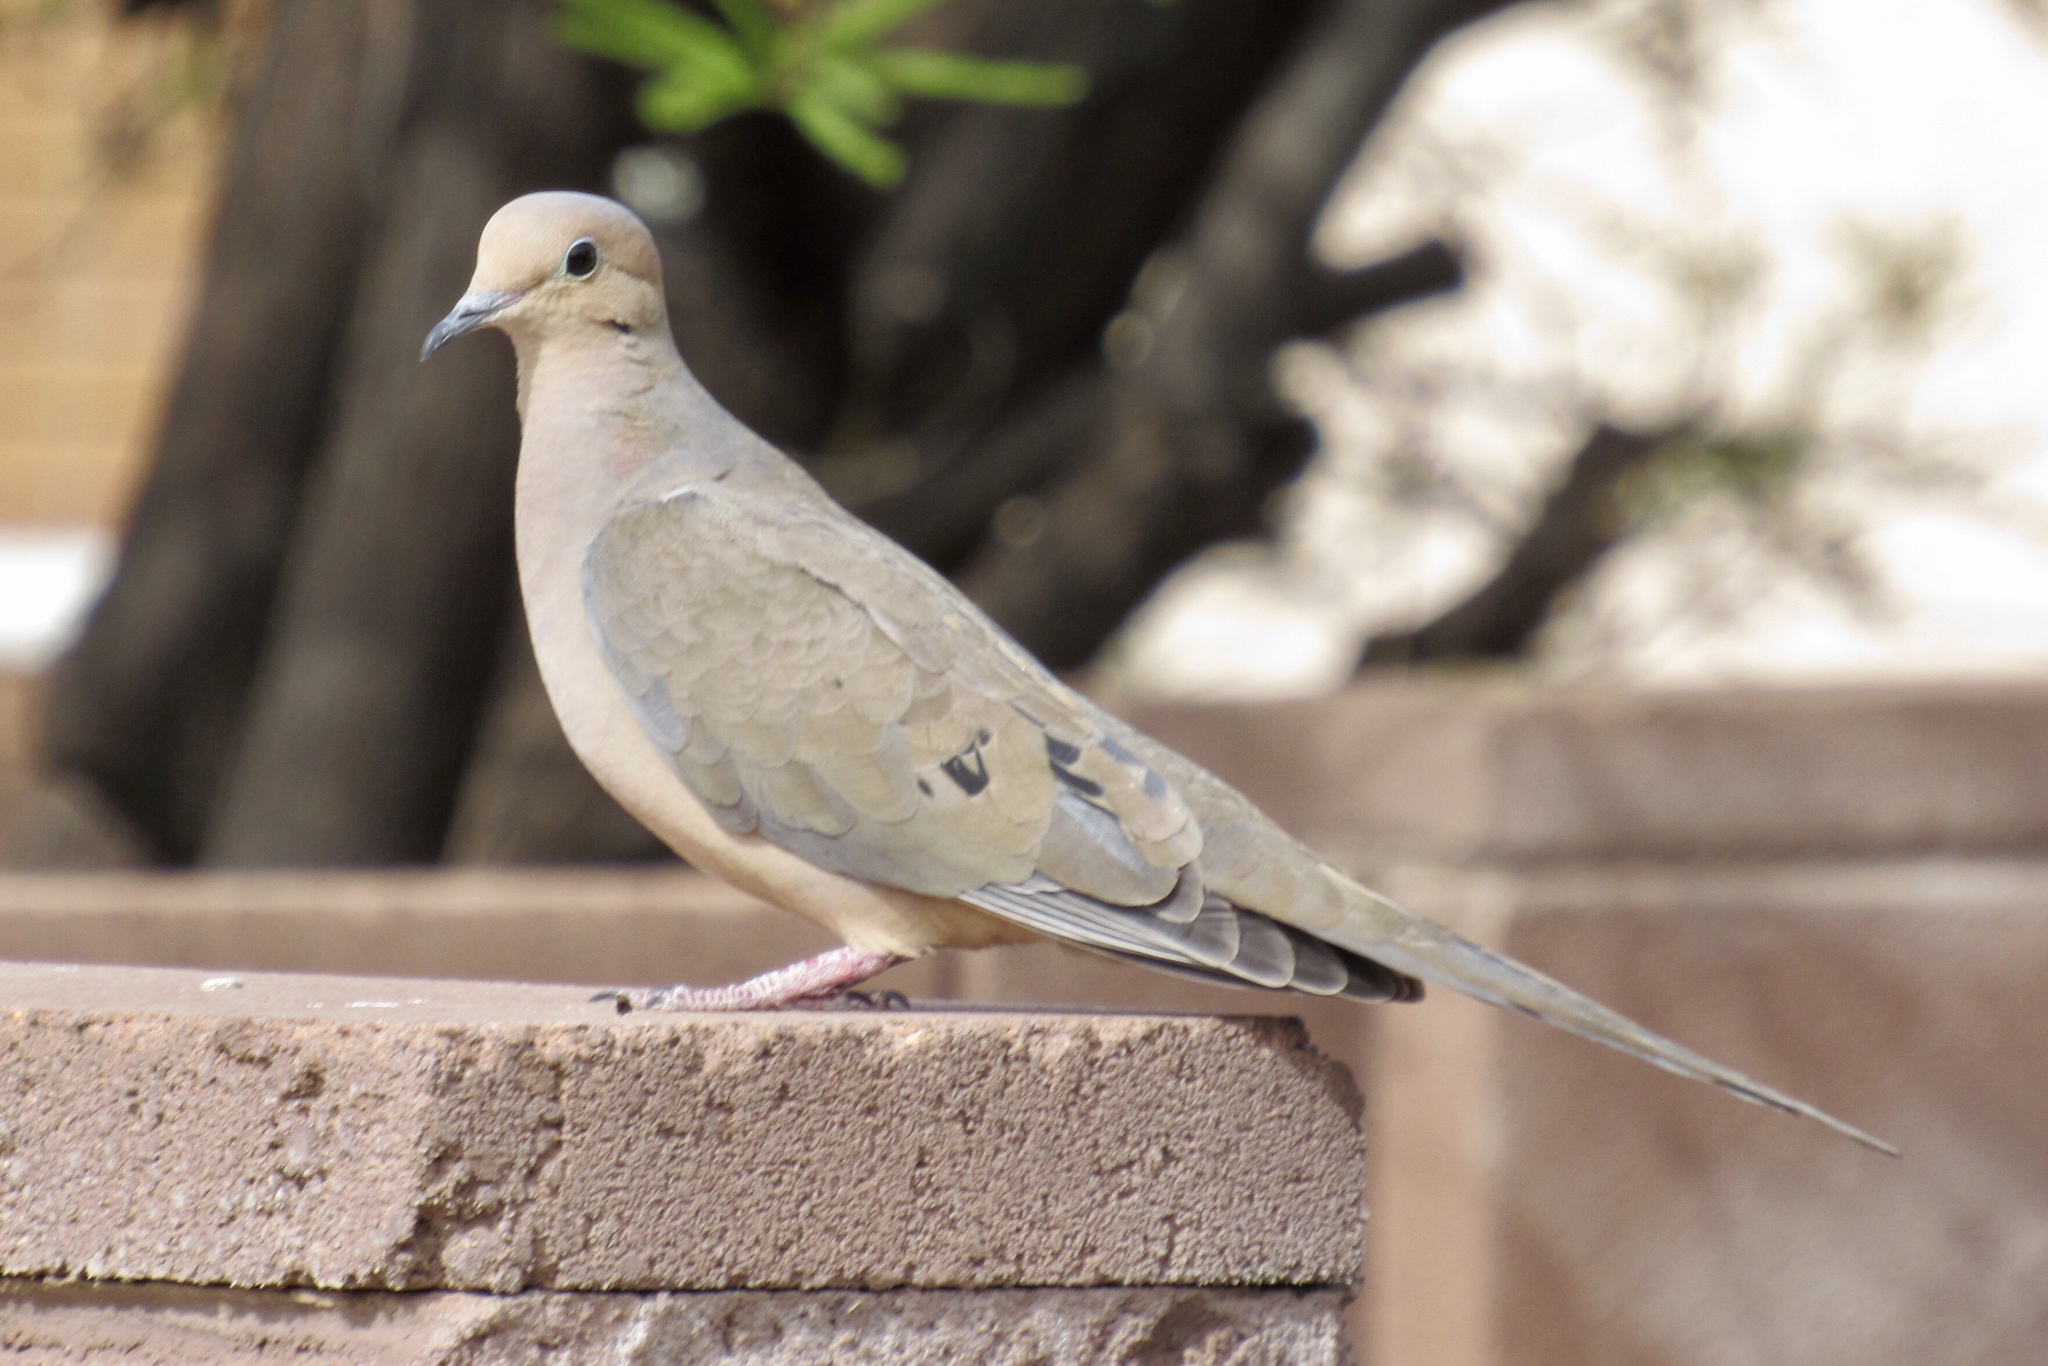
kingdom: Animalia
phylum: Chordata
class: Aves
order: Columbiformes
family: Columbidae
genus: Zenaida
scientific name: Zenaida macroura
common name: Mourning dove
